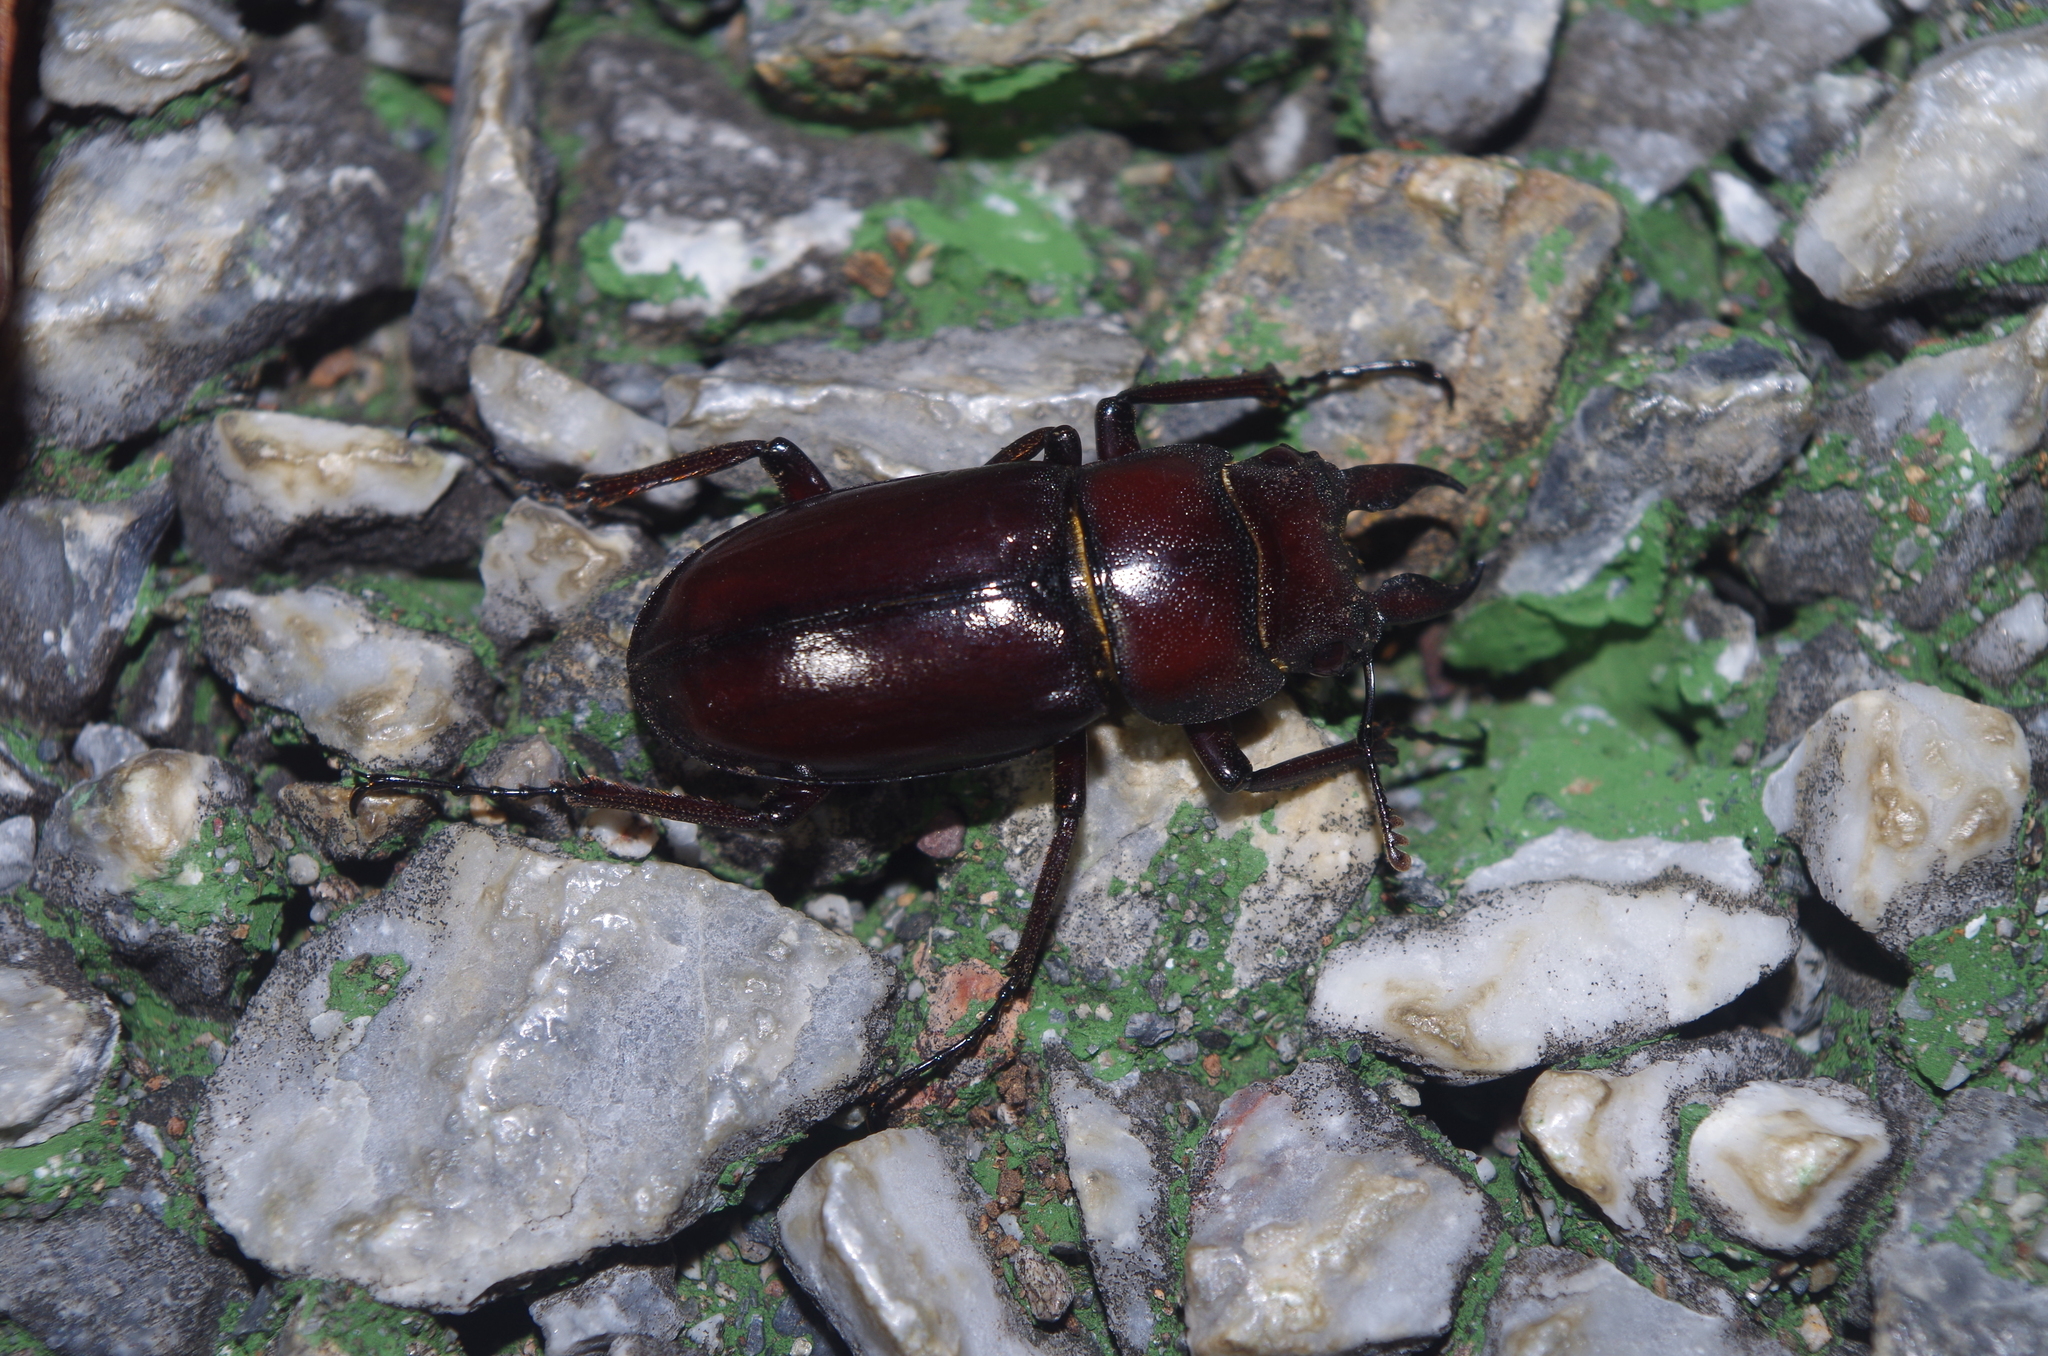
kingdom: Animalia
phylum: Arthropoda
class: Insecta
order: Coleoptera
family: Lucanidae
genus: Prosopocoilus
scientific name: Prosopocoilus dissimilis
